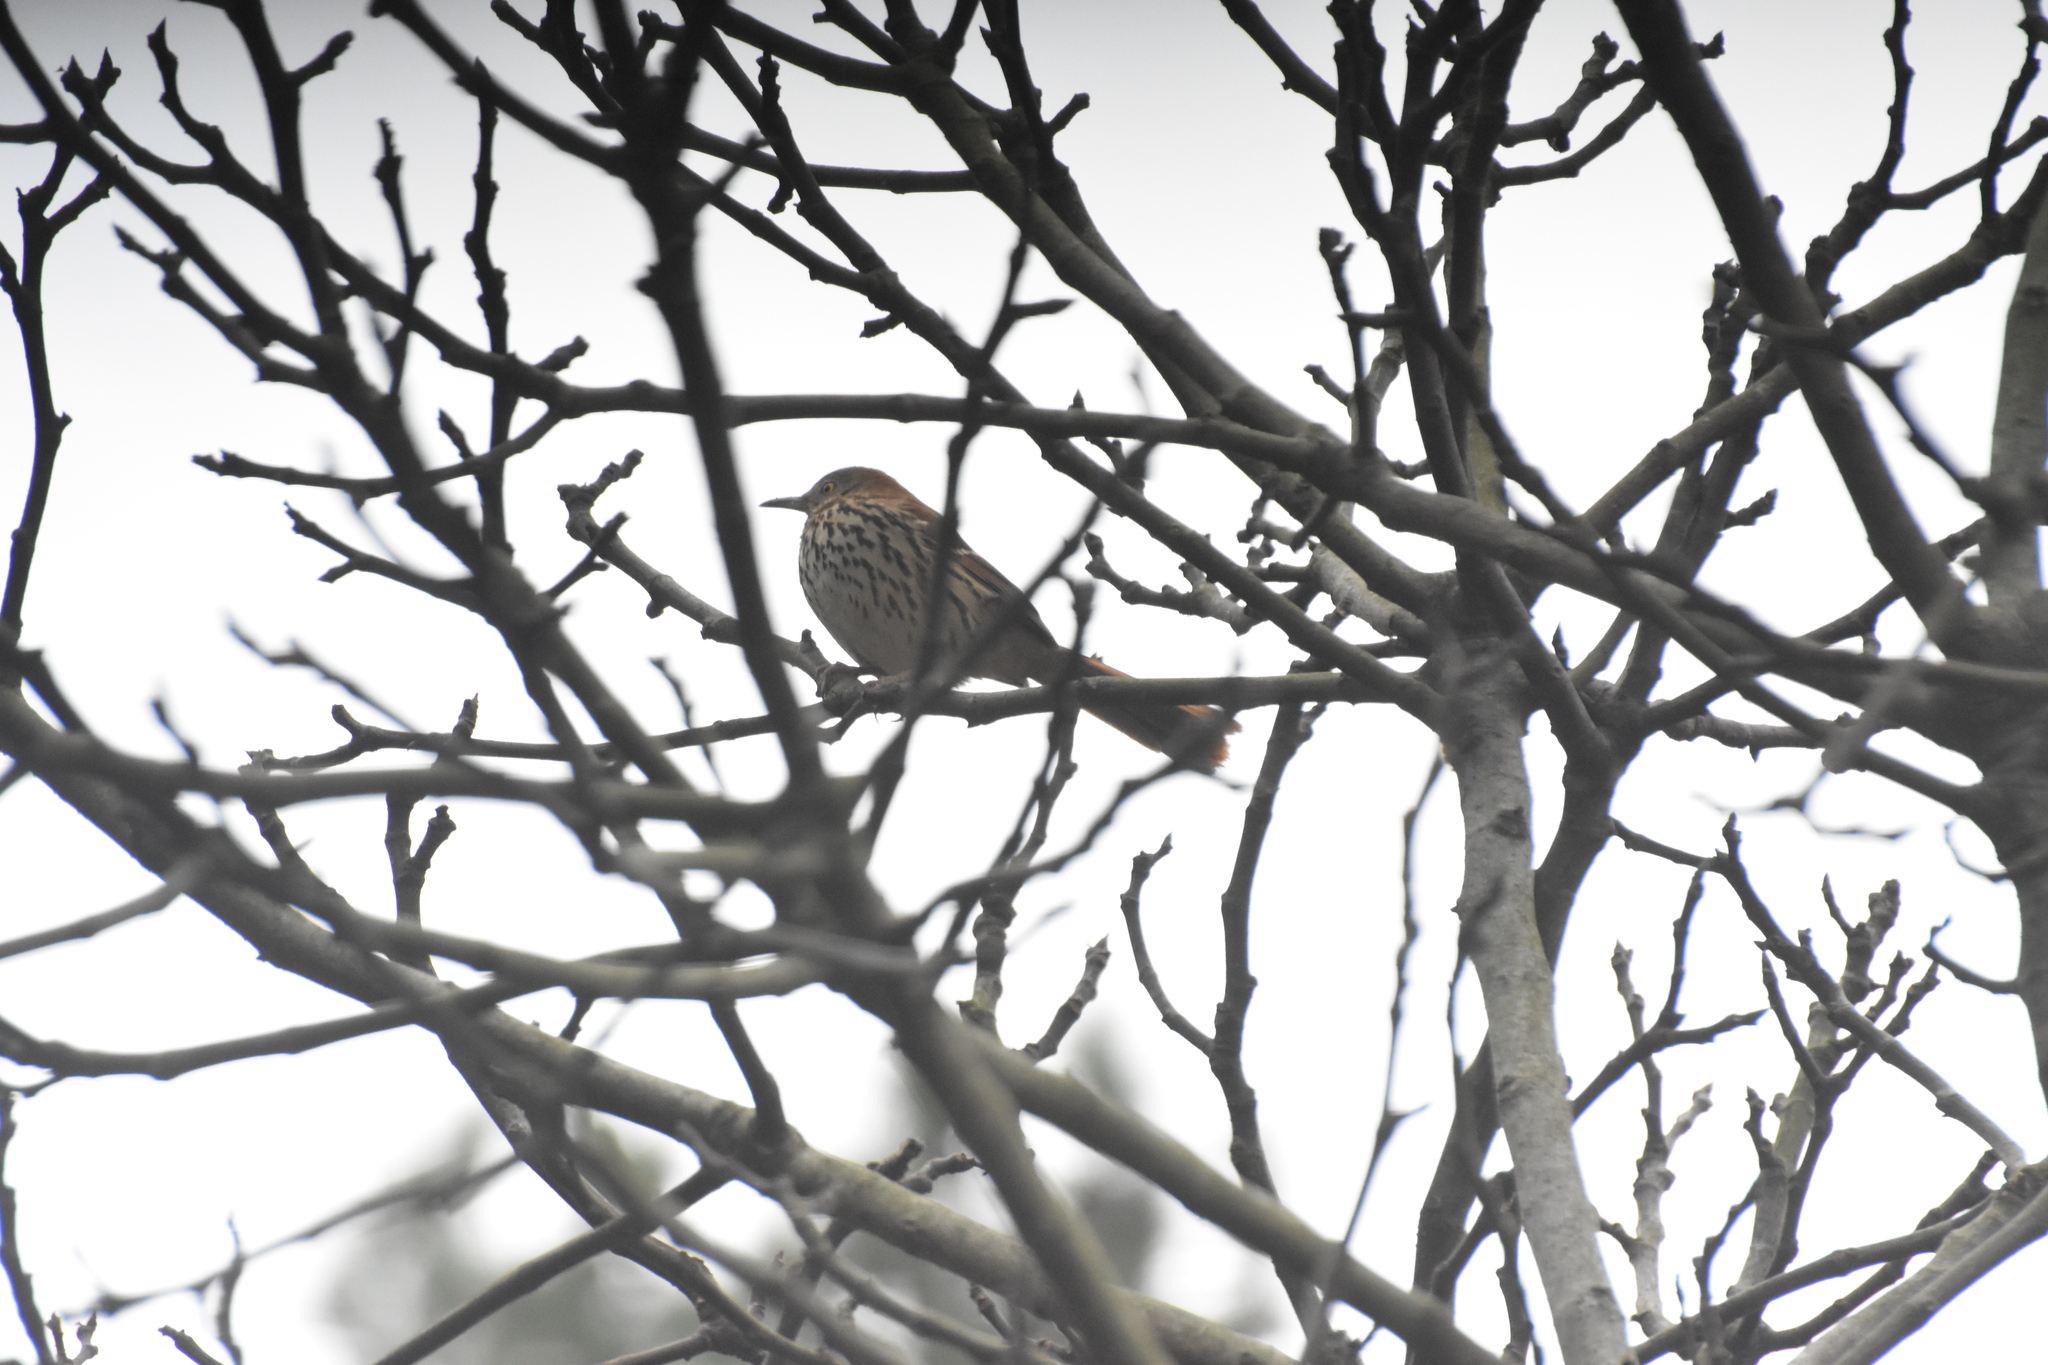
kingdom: Animalia
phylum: Chordata
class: Aves
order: Passeriformes
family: Mimidae
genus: Toxostoma
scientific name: Toxostoma rufum
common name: Brown thrasher
